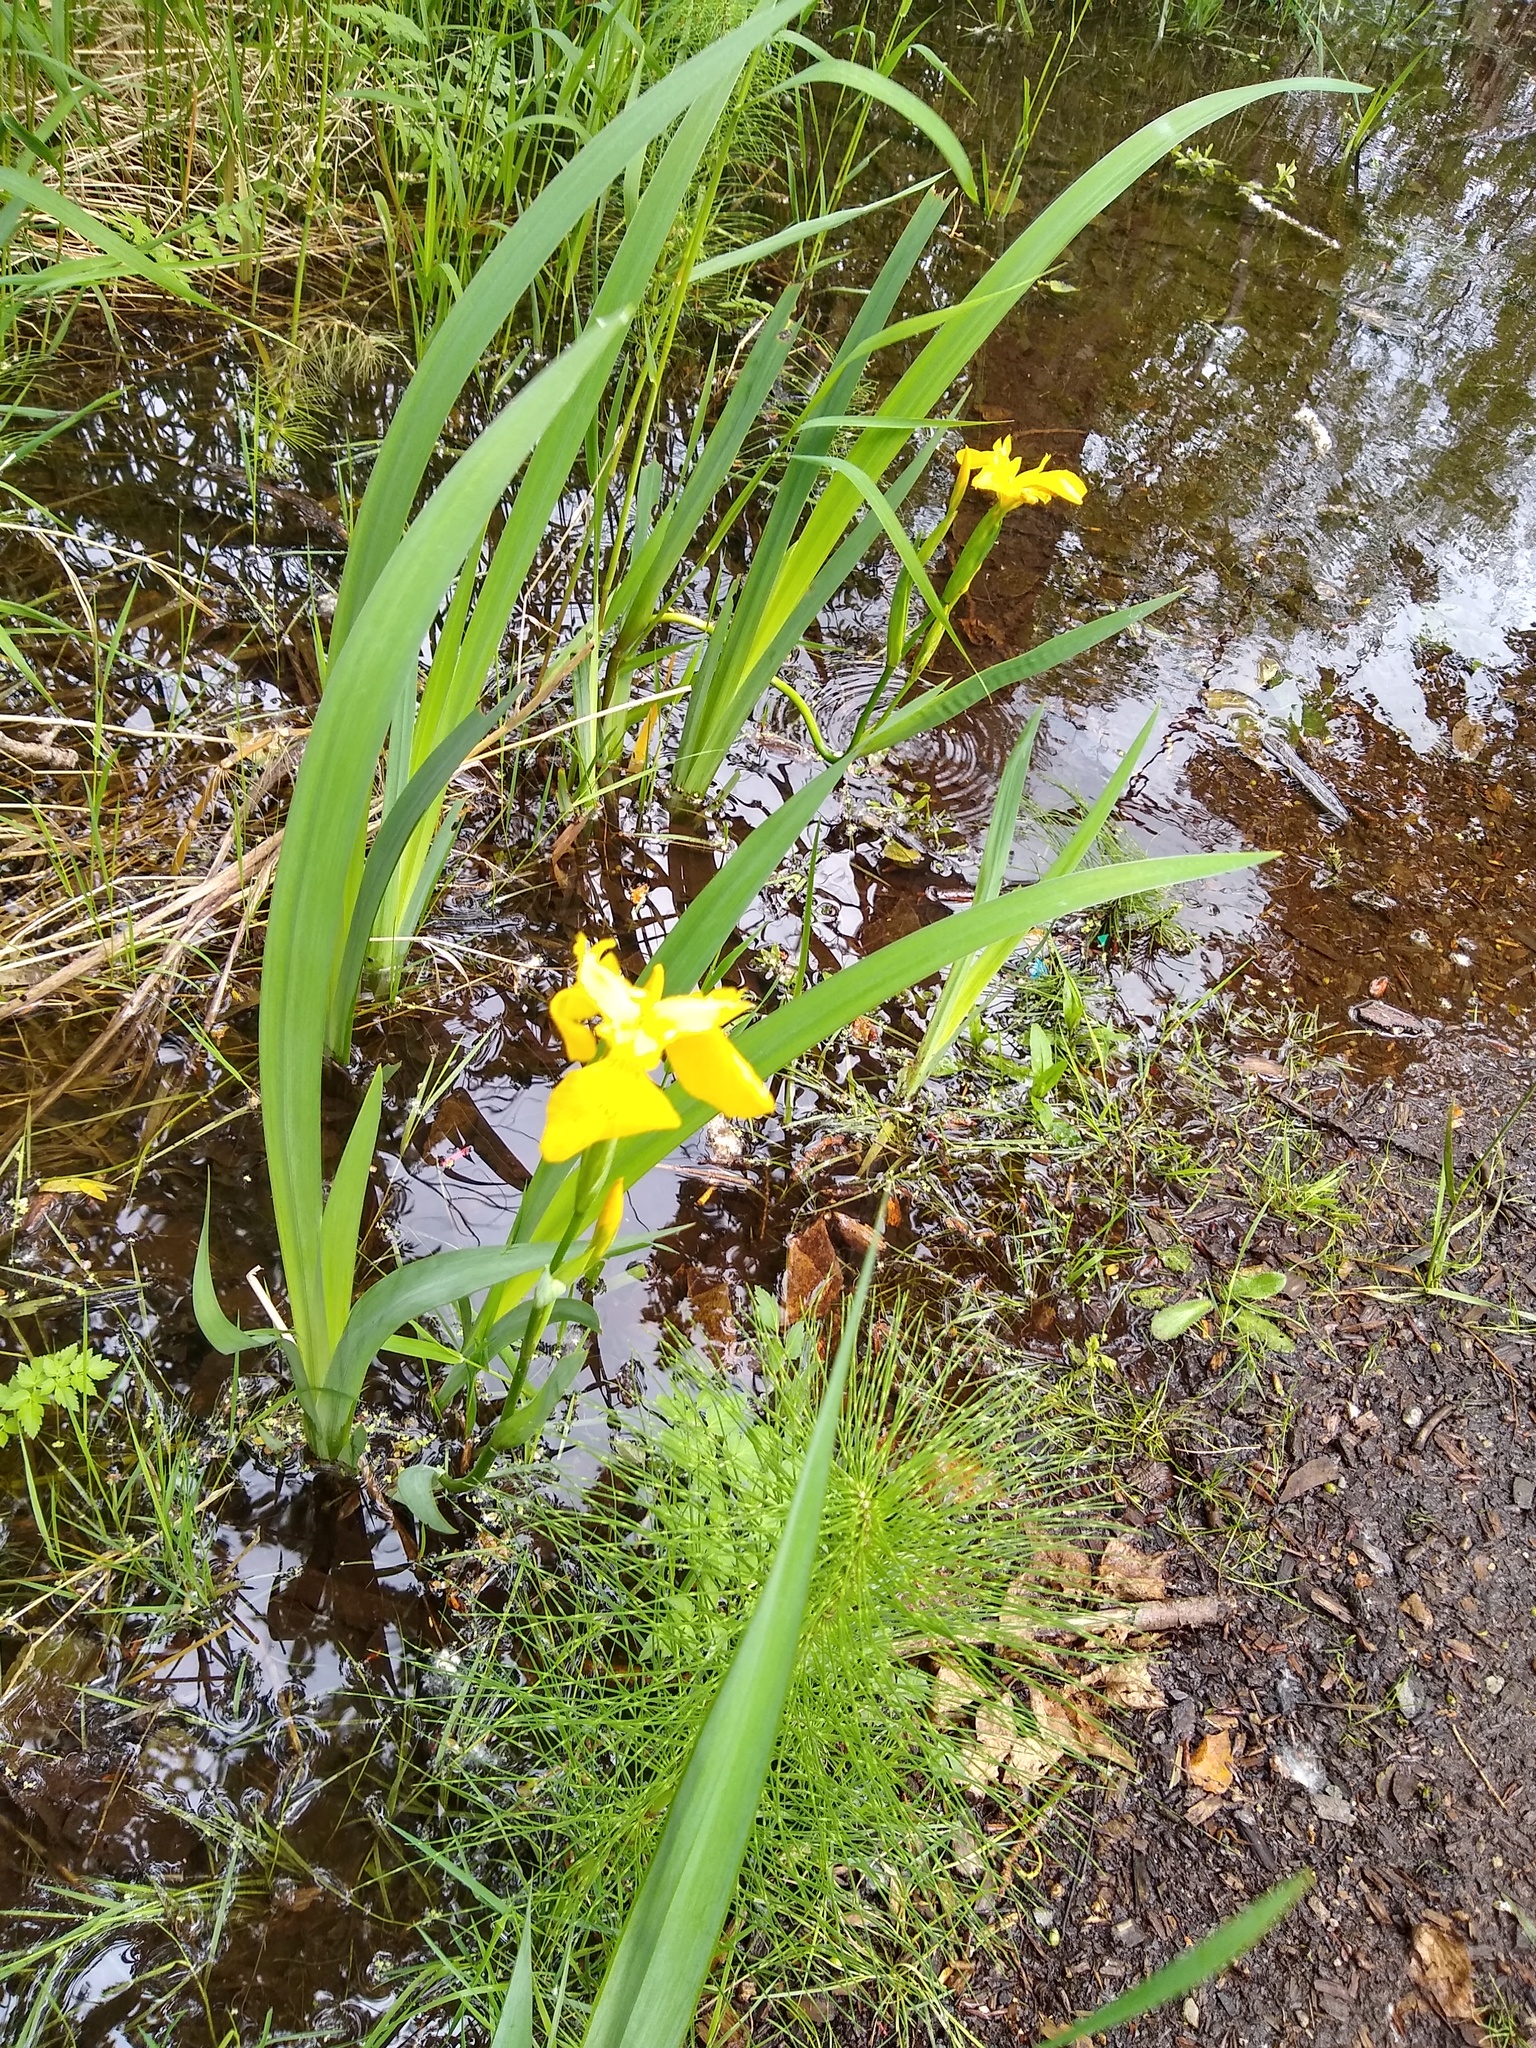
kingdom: Plantae
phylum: Tracheophyta
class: Liliopsida
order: Asparagales
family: Iridaceae
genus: Iris
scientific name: Iris pseudacorus
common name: Yellow flag
